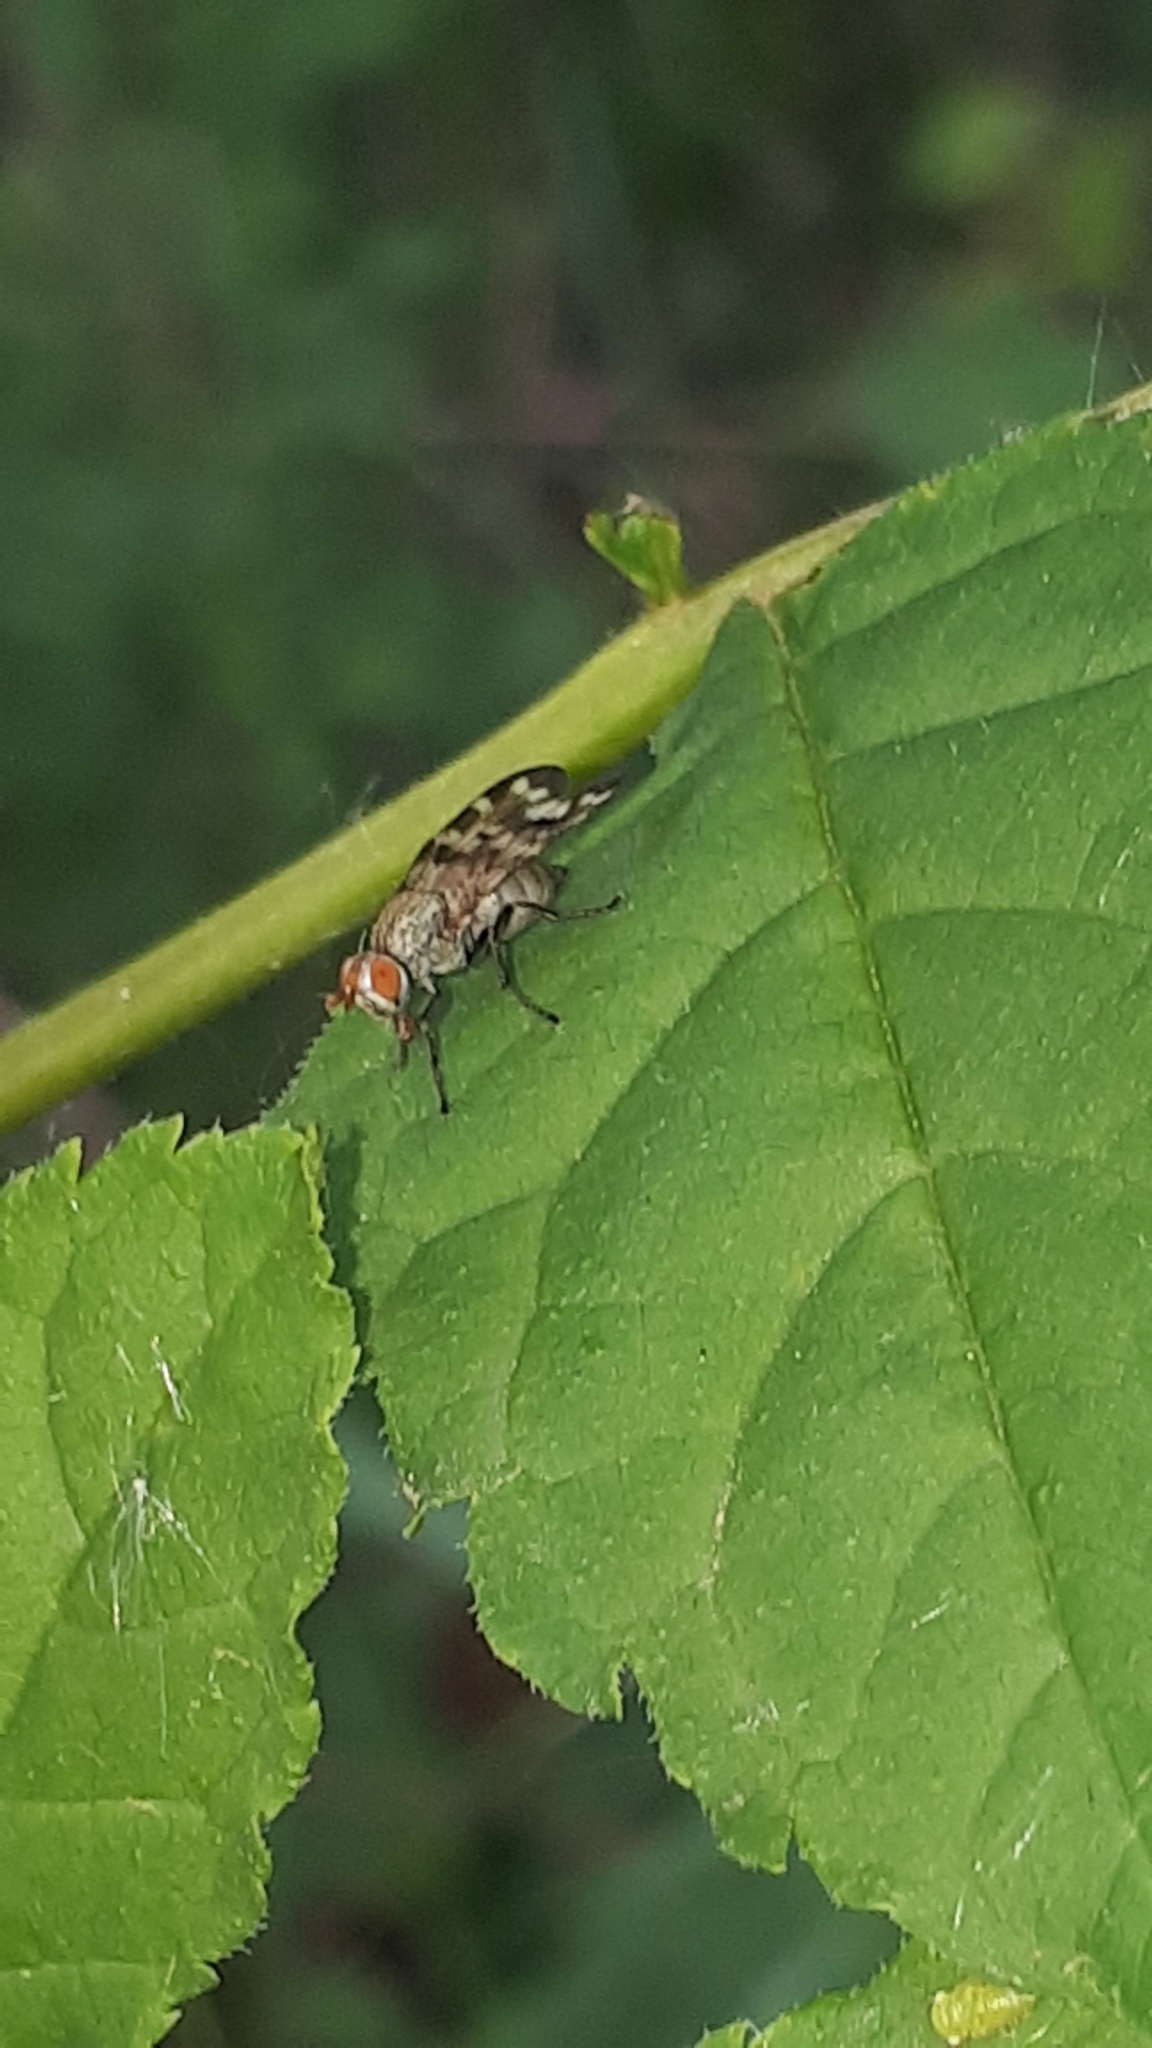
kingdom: Animalia
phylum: Arthropoda
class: Insecta
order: Diptera
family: Ulidiidae
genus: Otites
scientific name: Otites centralis
